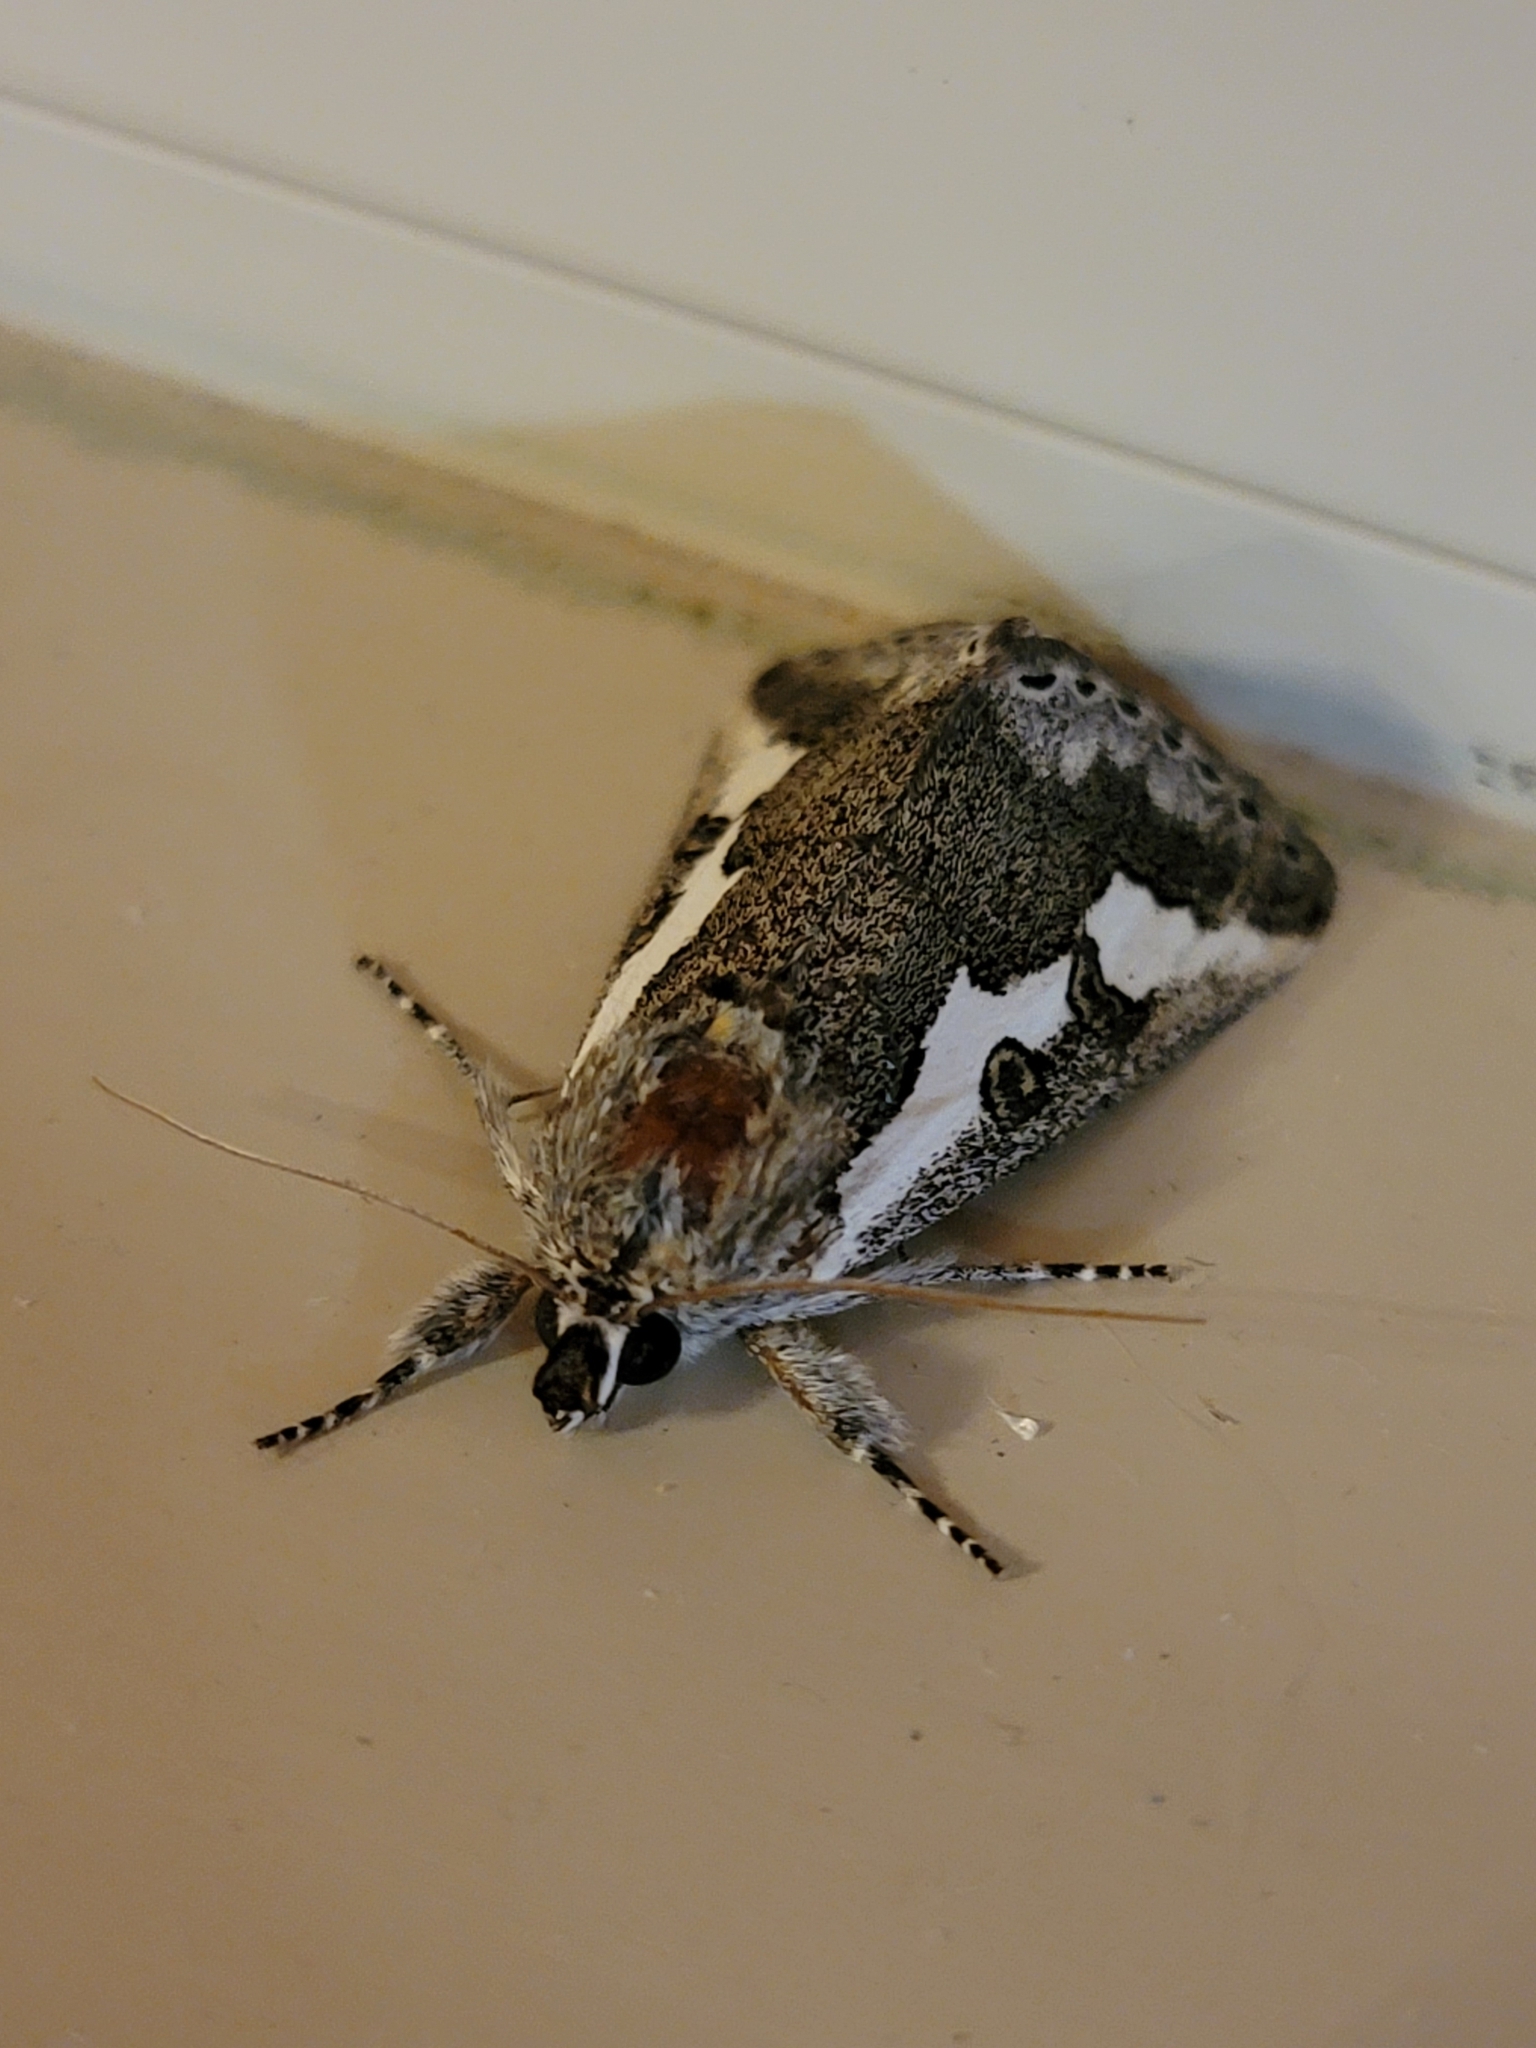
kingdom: Animalia
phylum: Arthropoda
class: Insecta
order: Lepidoptera
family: Noctuidae
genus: Euscirrhopterus
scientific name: Euscirrhopterus gloveri
